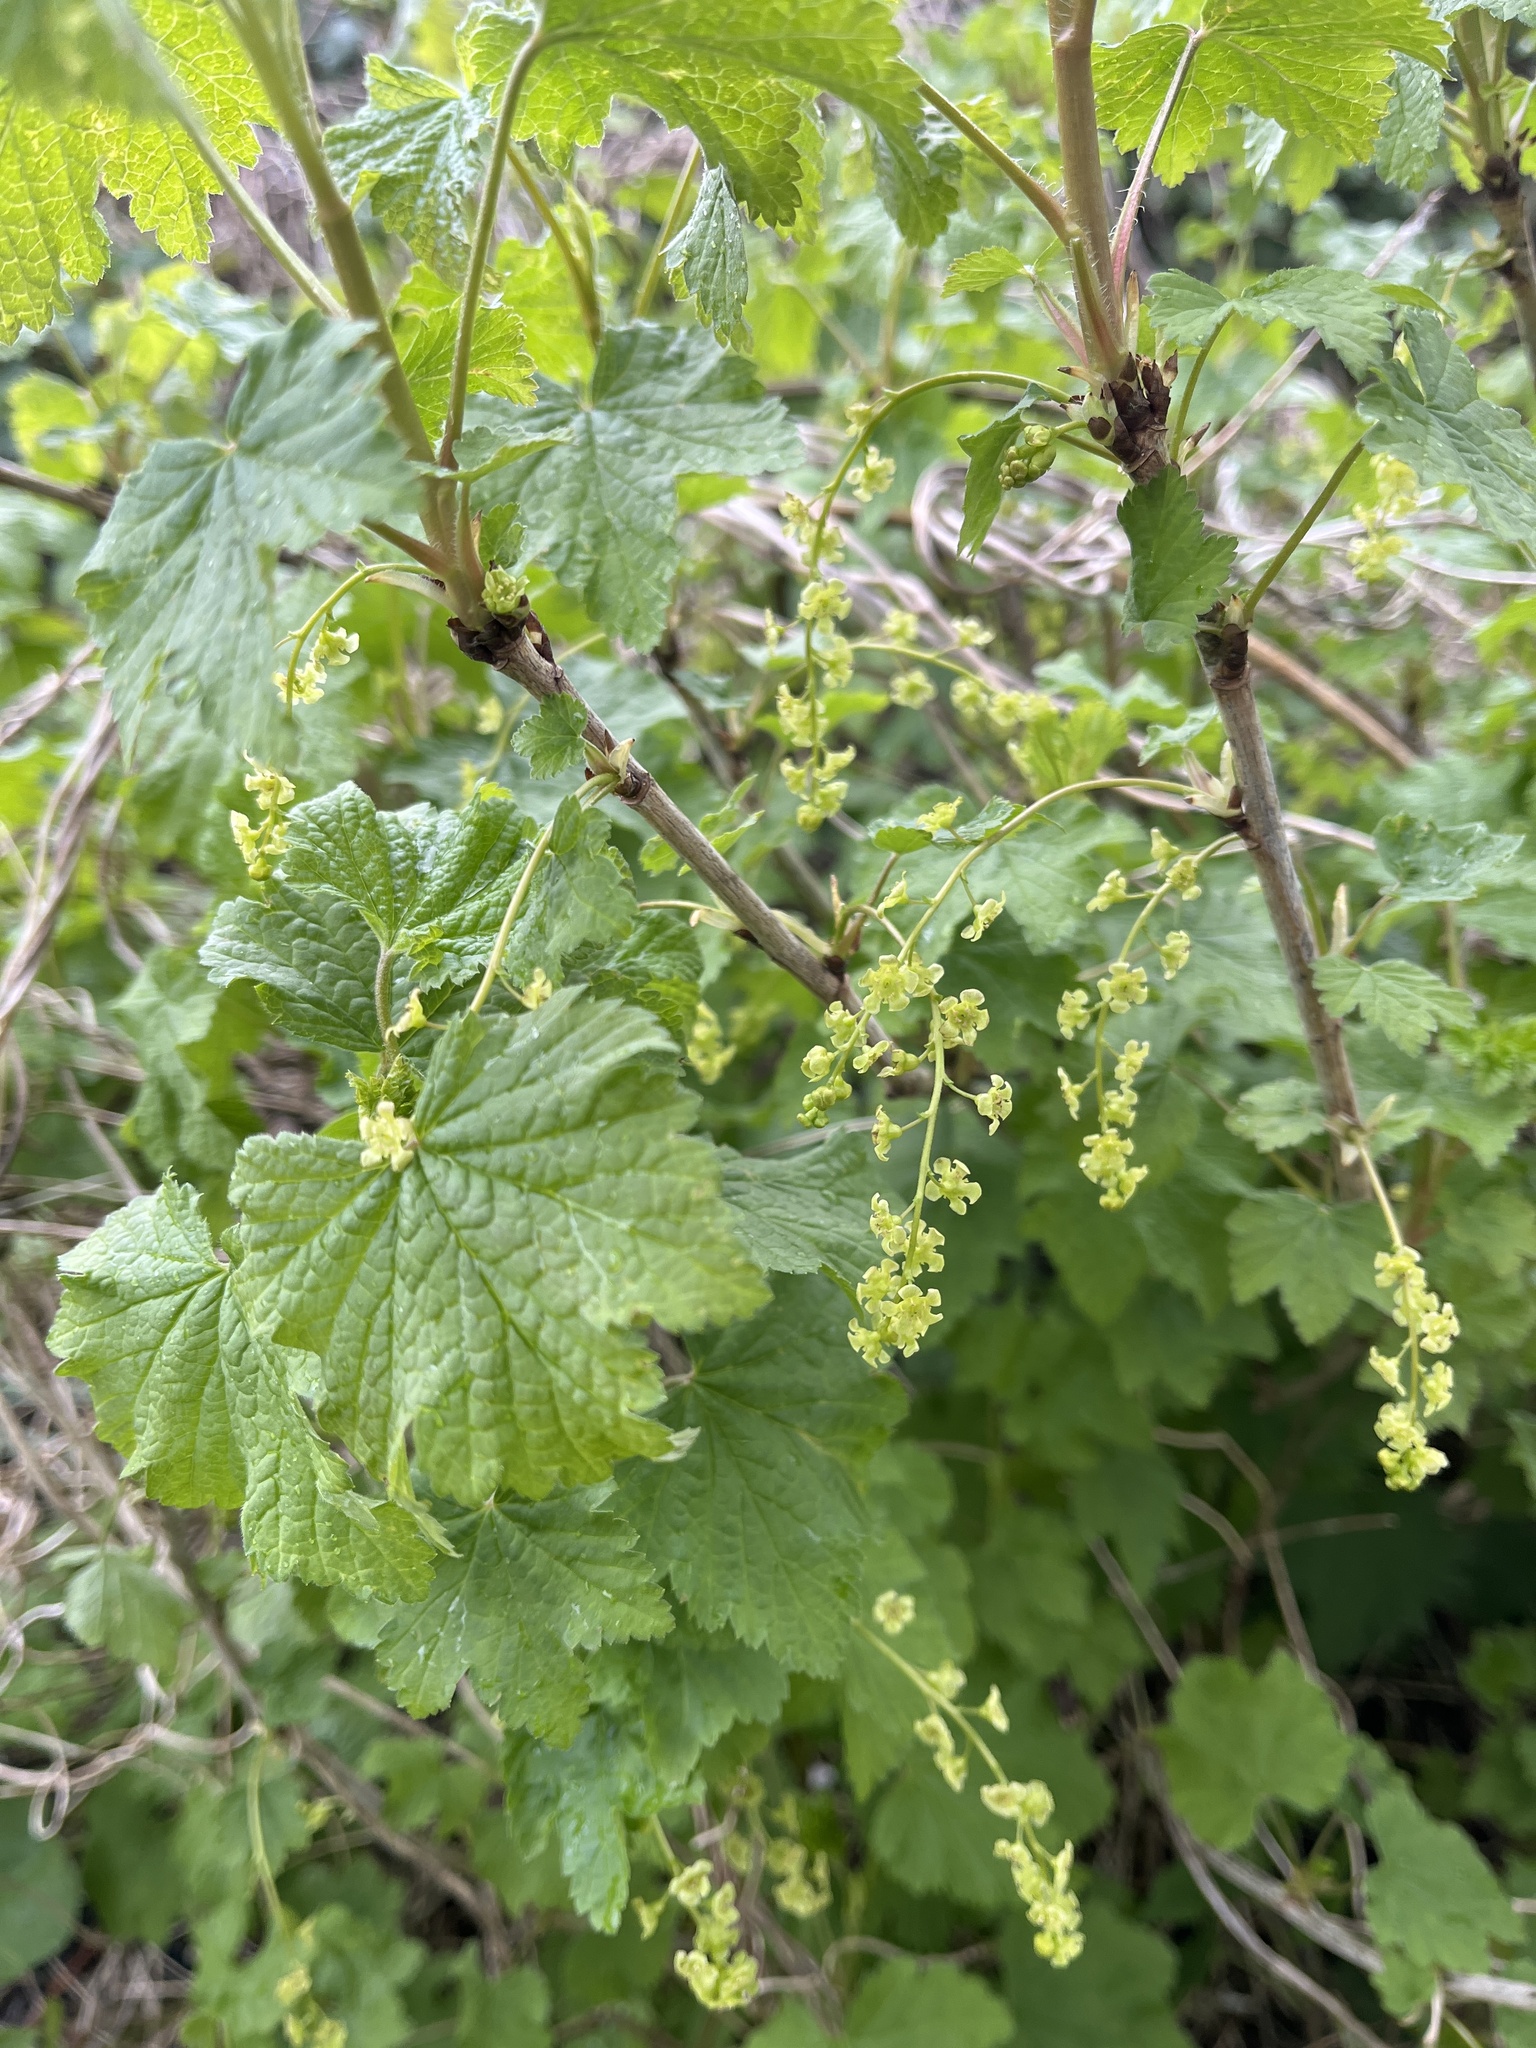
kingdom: Plantae
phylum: Tracheophyta
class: Magnoliopsida
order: Saxifragales
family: Grossulariaceae
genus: Ribes
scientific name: Ribes rubrum
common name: Red currant
